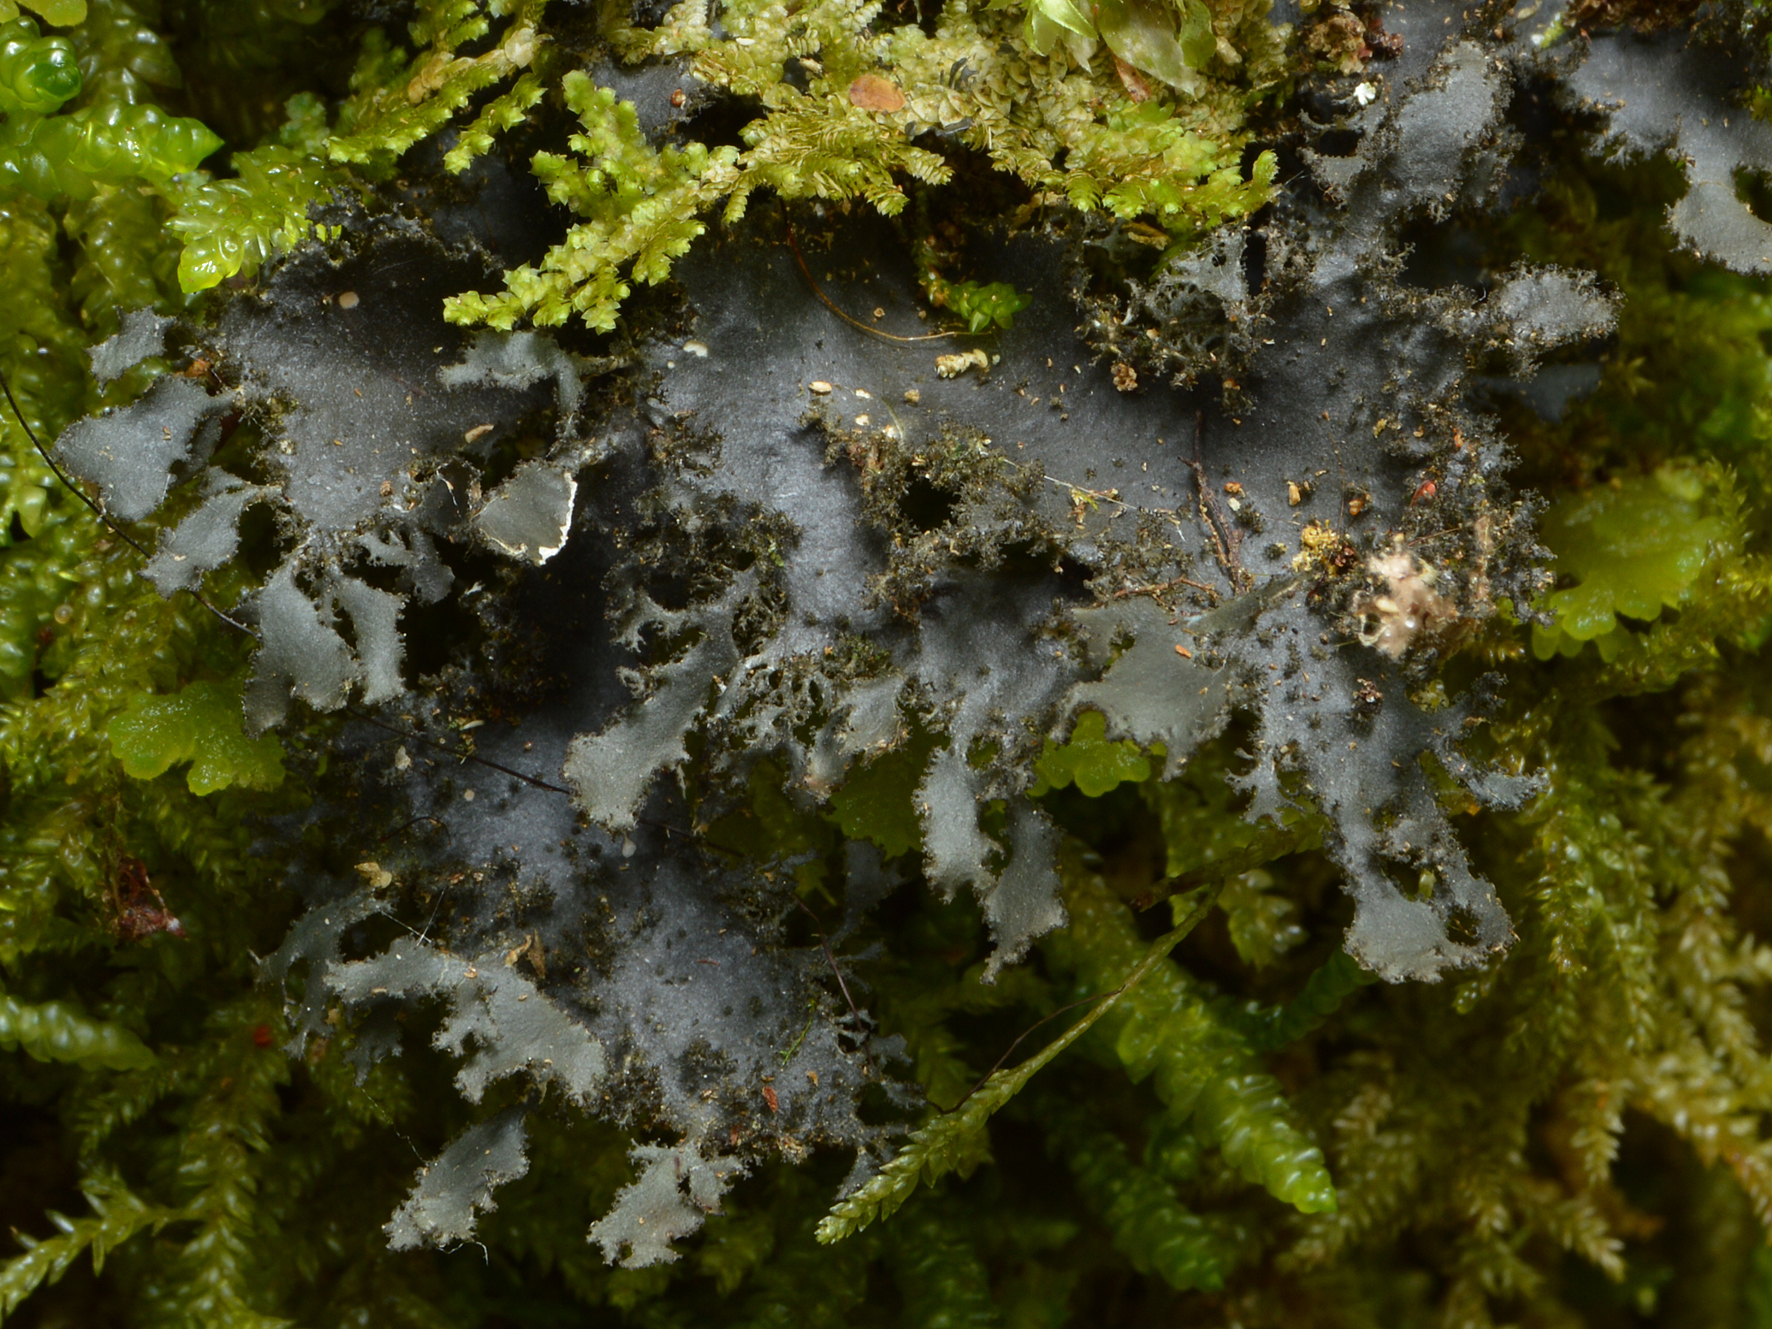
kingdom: Fungi
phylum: Ascomycota
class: Lecanoromycetes
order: Peltigerales
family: Lobariaceae
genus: Sticta
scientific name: Sticta caliginosa
